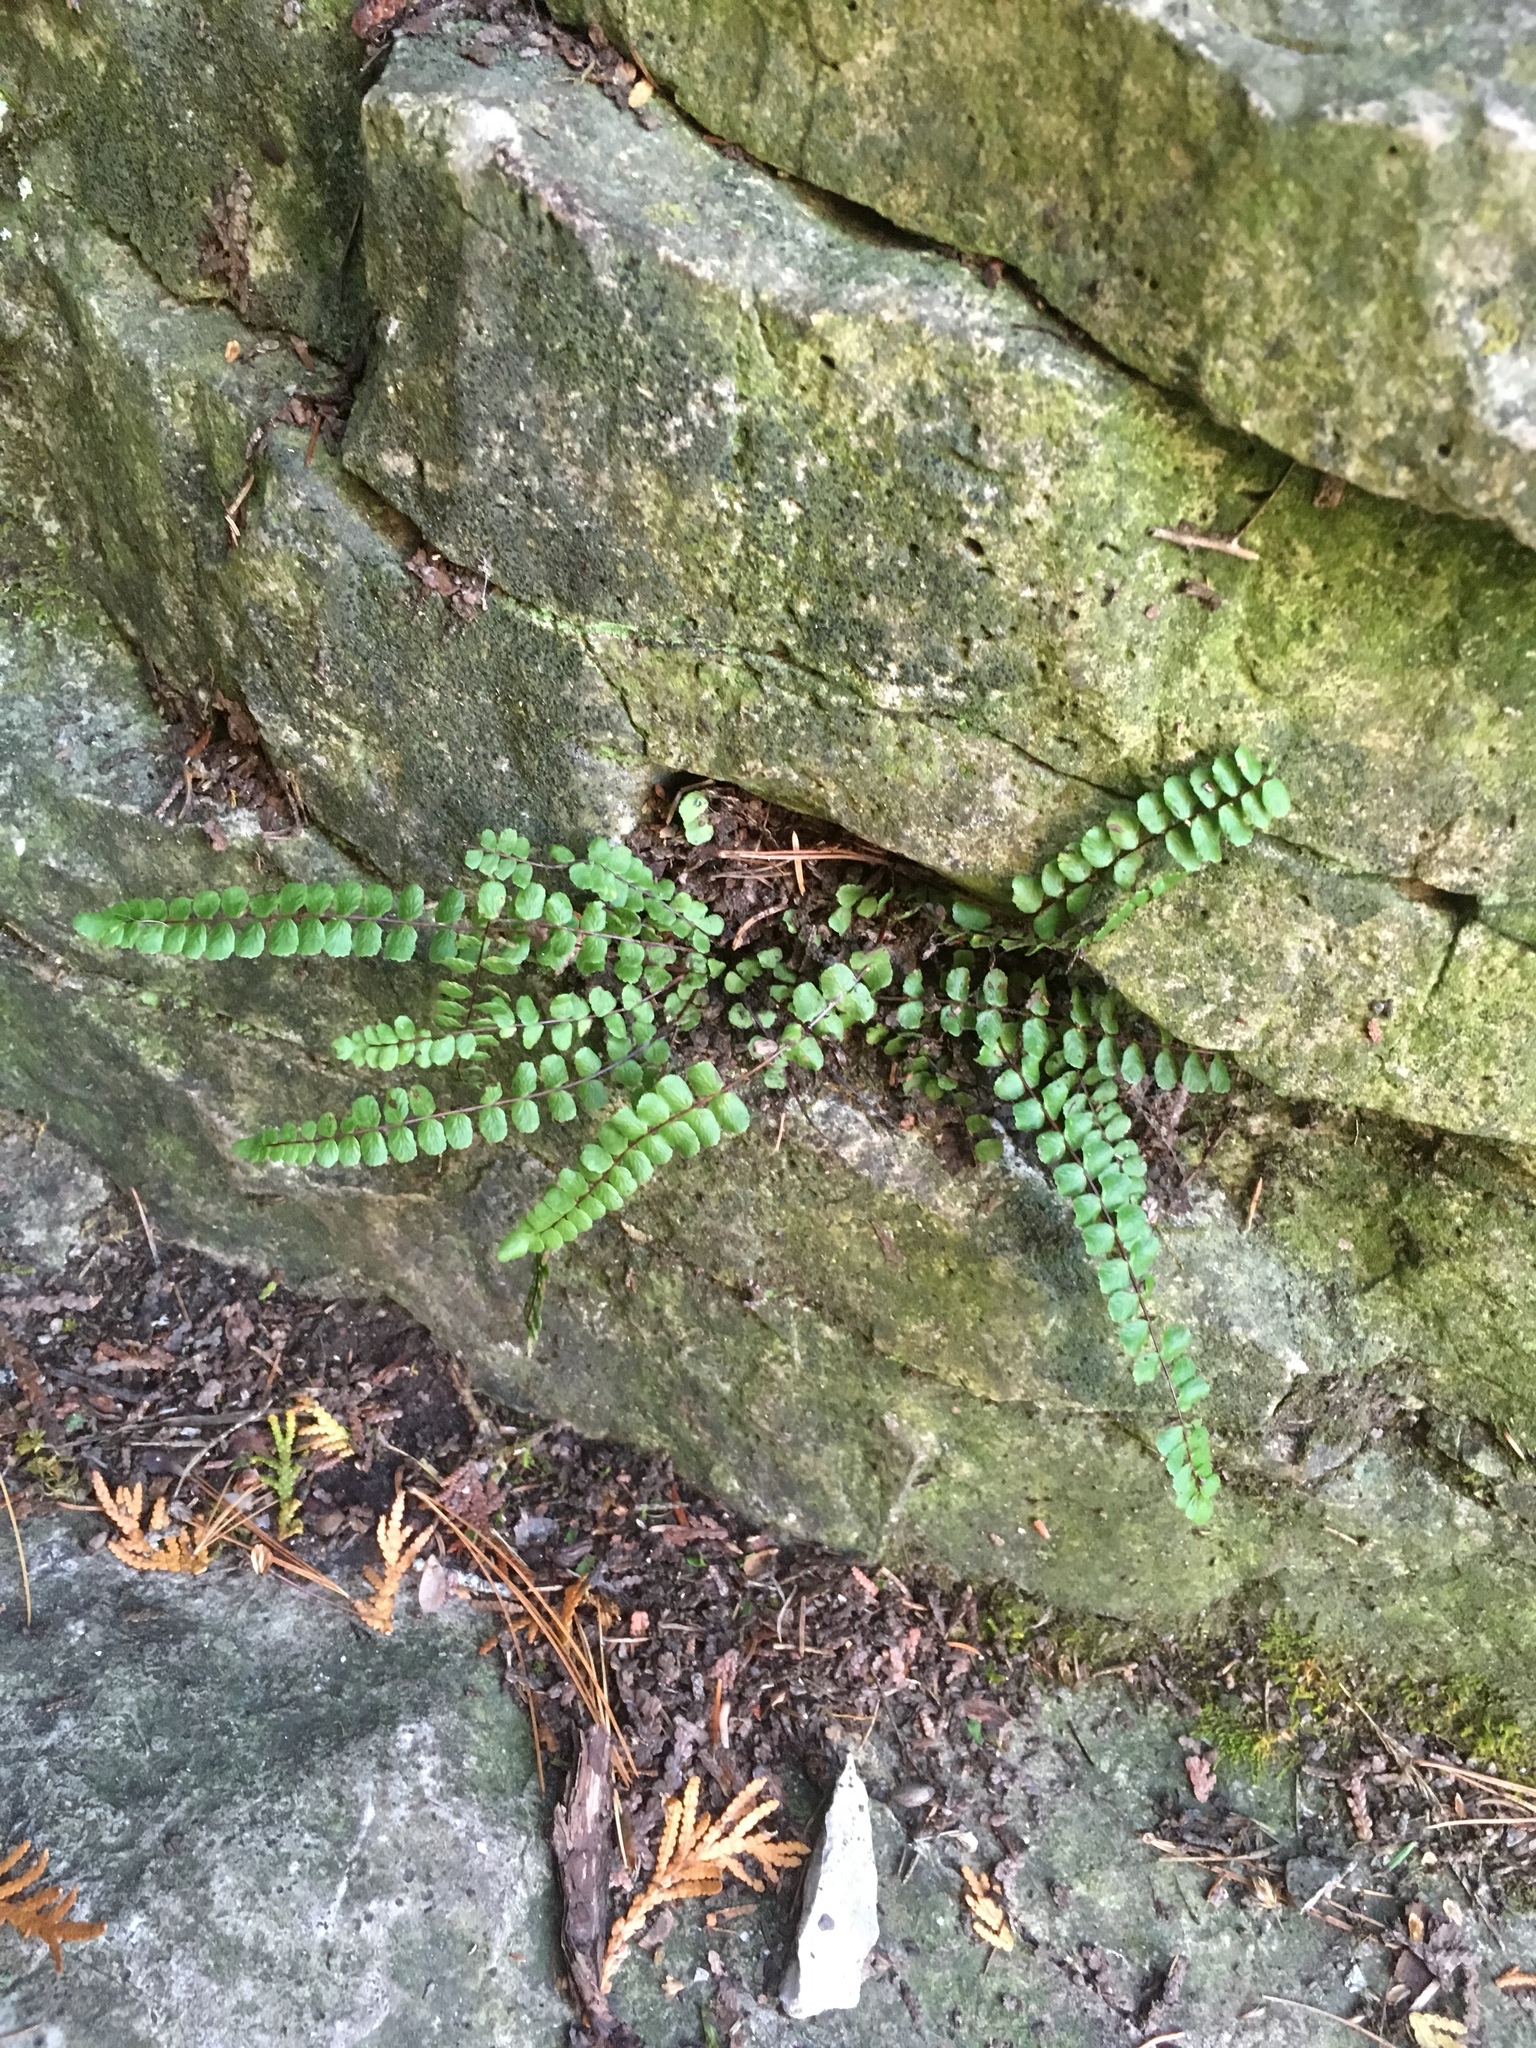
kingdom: Plantae
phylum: Tracheophyta
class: Polypodiopsida
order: Polypodiales
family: Aspleniaceae
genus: Asplenium
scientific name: Asplenium trichomanes
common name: Maidenhair spleenwort
